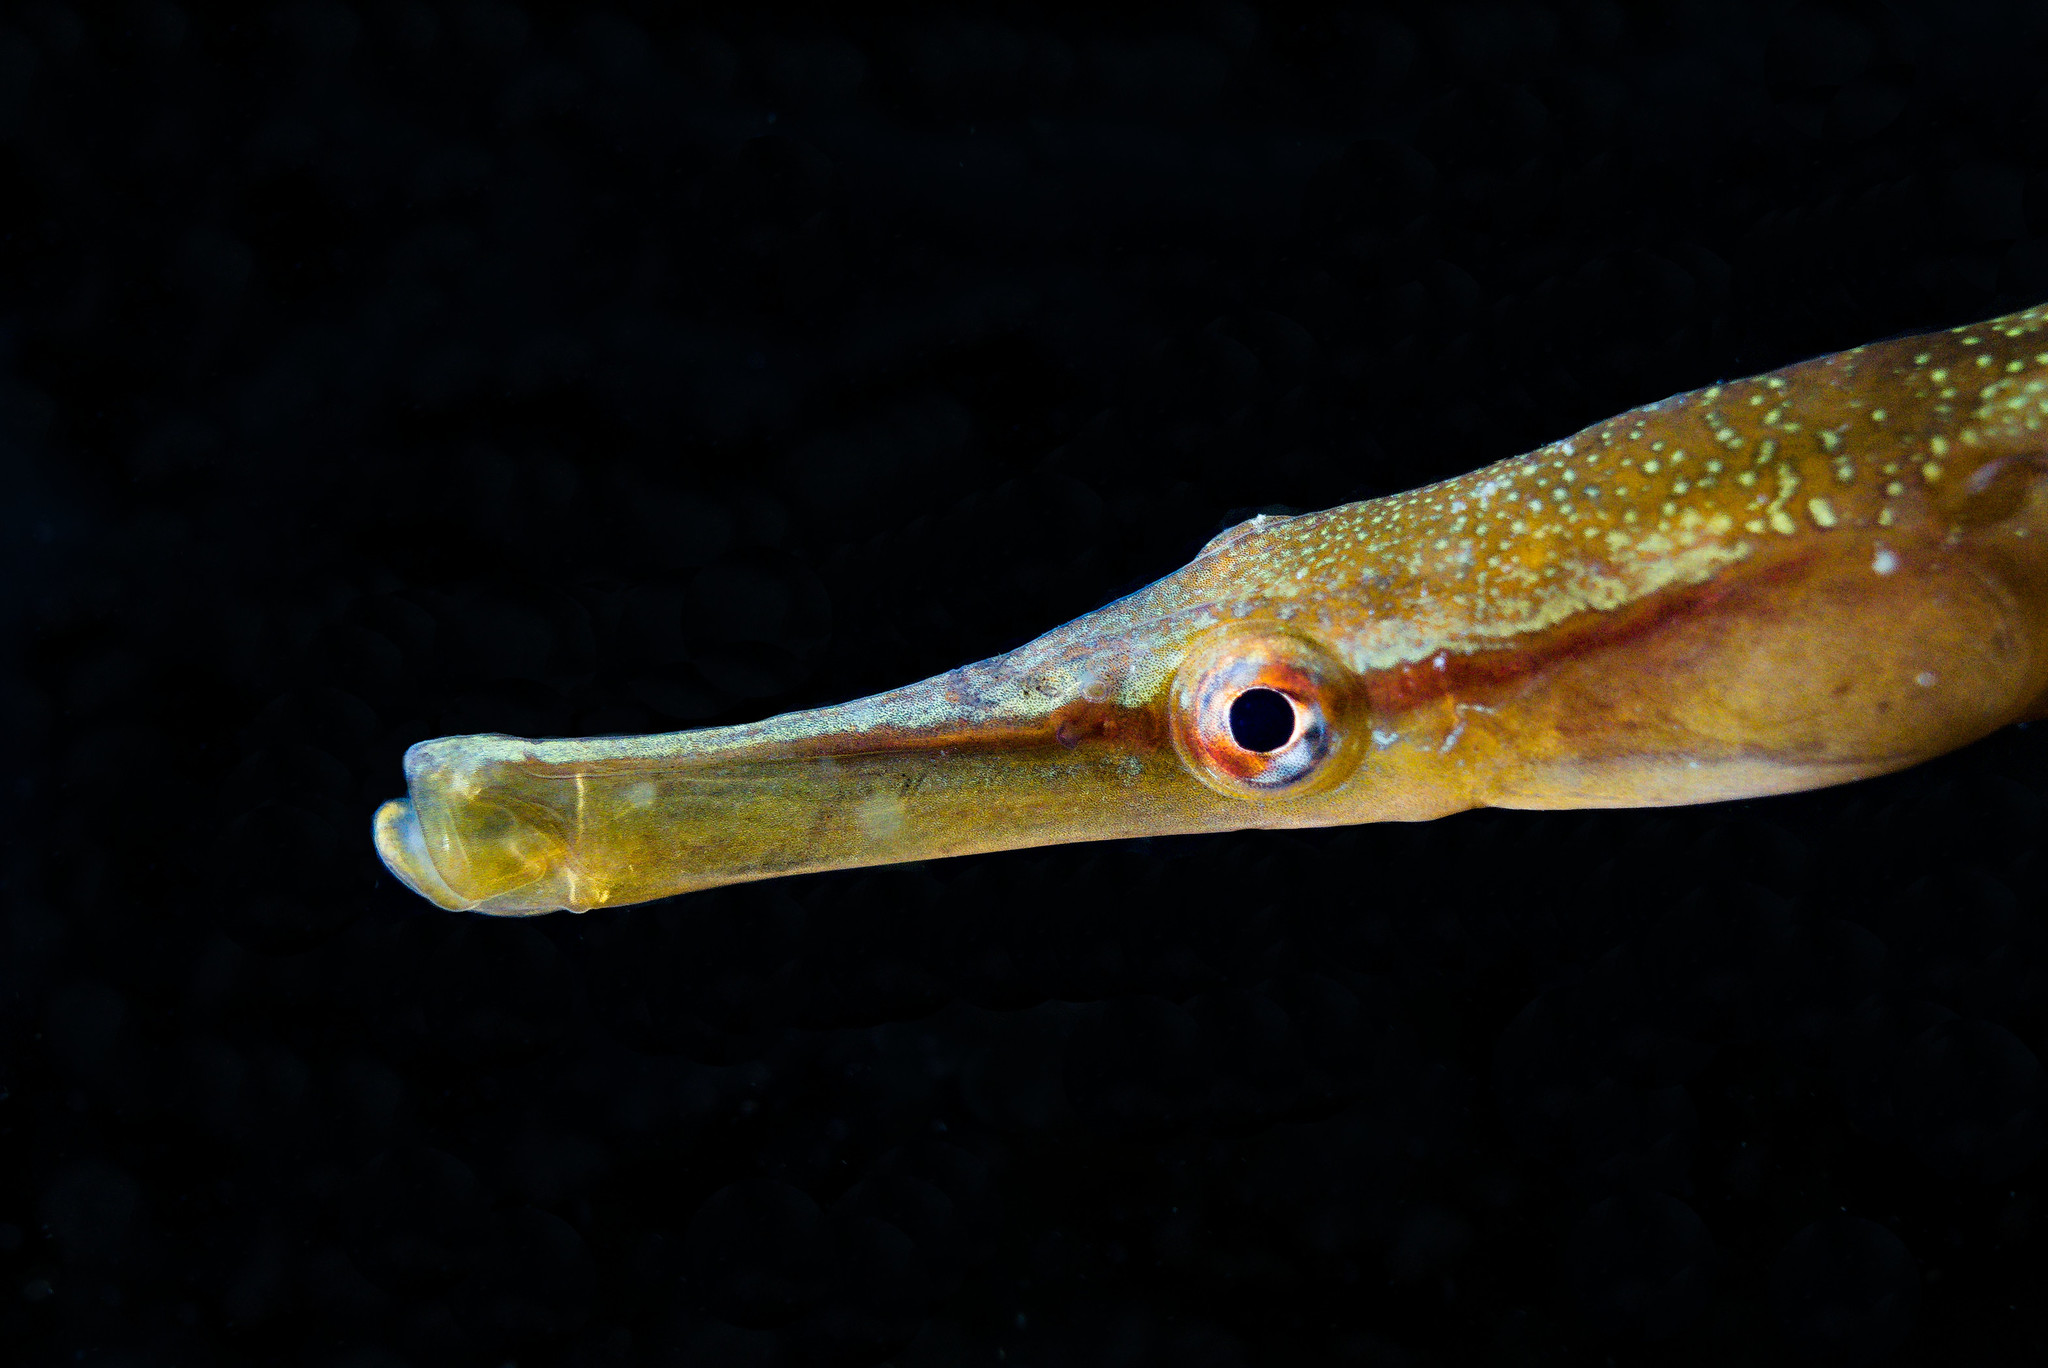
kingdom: Animalia
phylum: Chordata
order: Syngnathiformes
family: Syngnathidae
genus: Entelurus
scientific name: Entelurus aequoreus
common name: Snake pipefish
